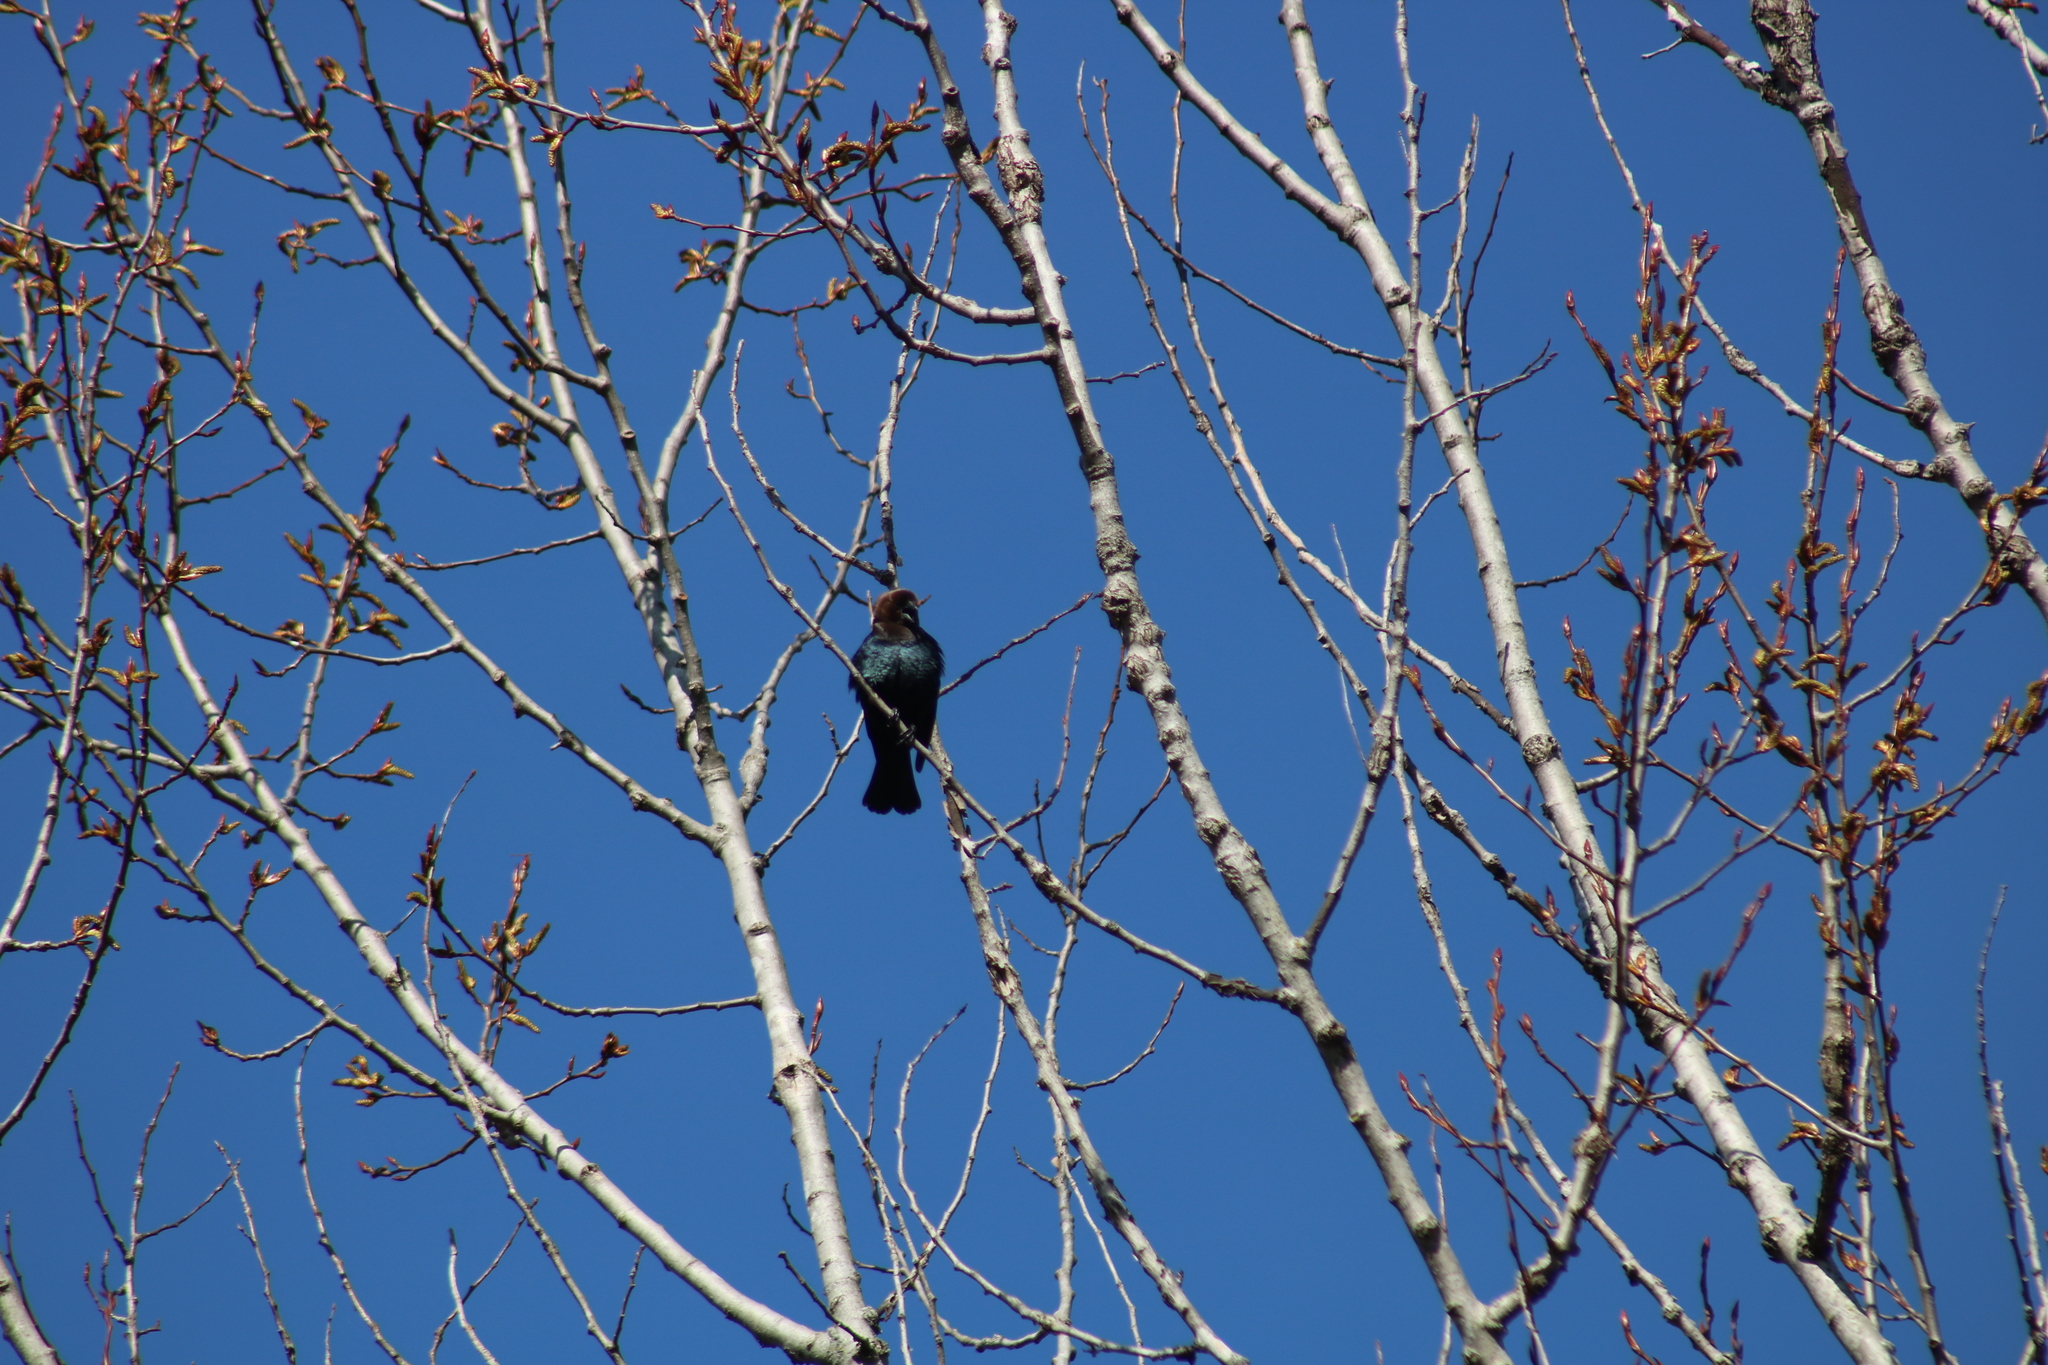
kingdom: Animalia
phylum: Chordata
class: Aves
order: Passeriformes
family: Icteridae
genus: Molothrus
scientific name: Molothrus ater
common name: Brown-headed cowbird
